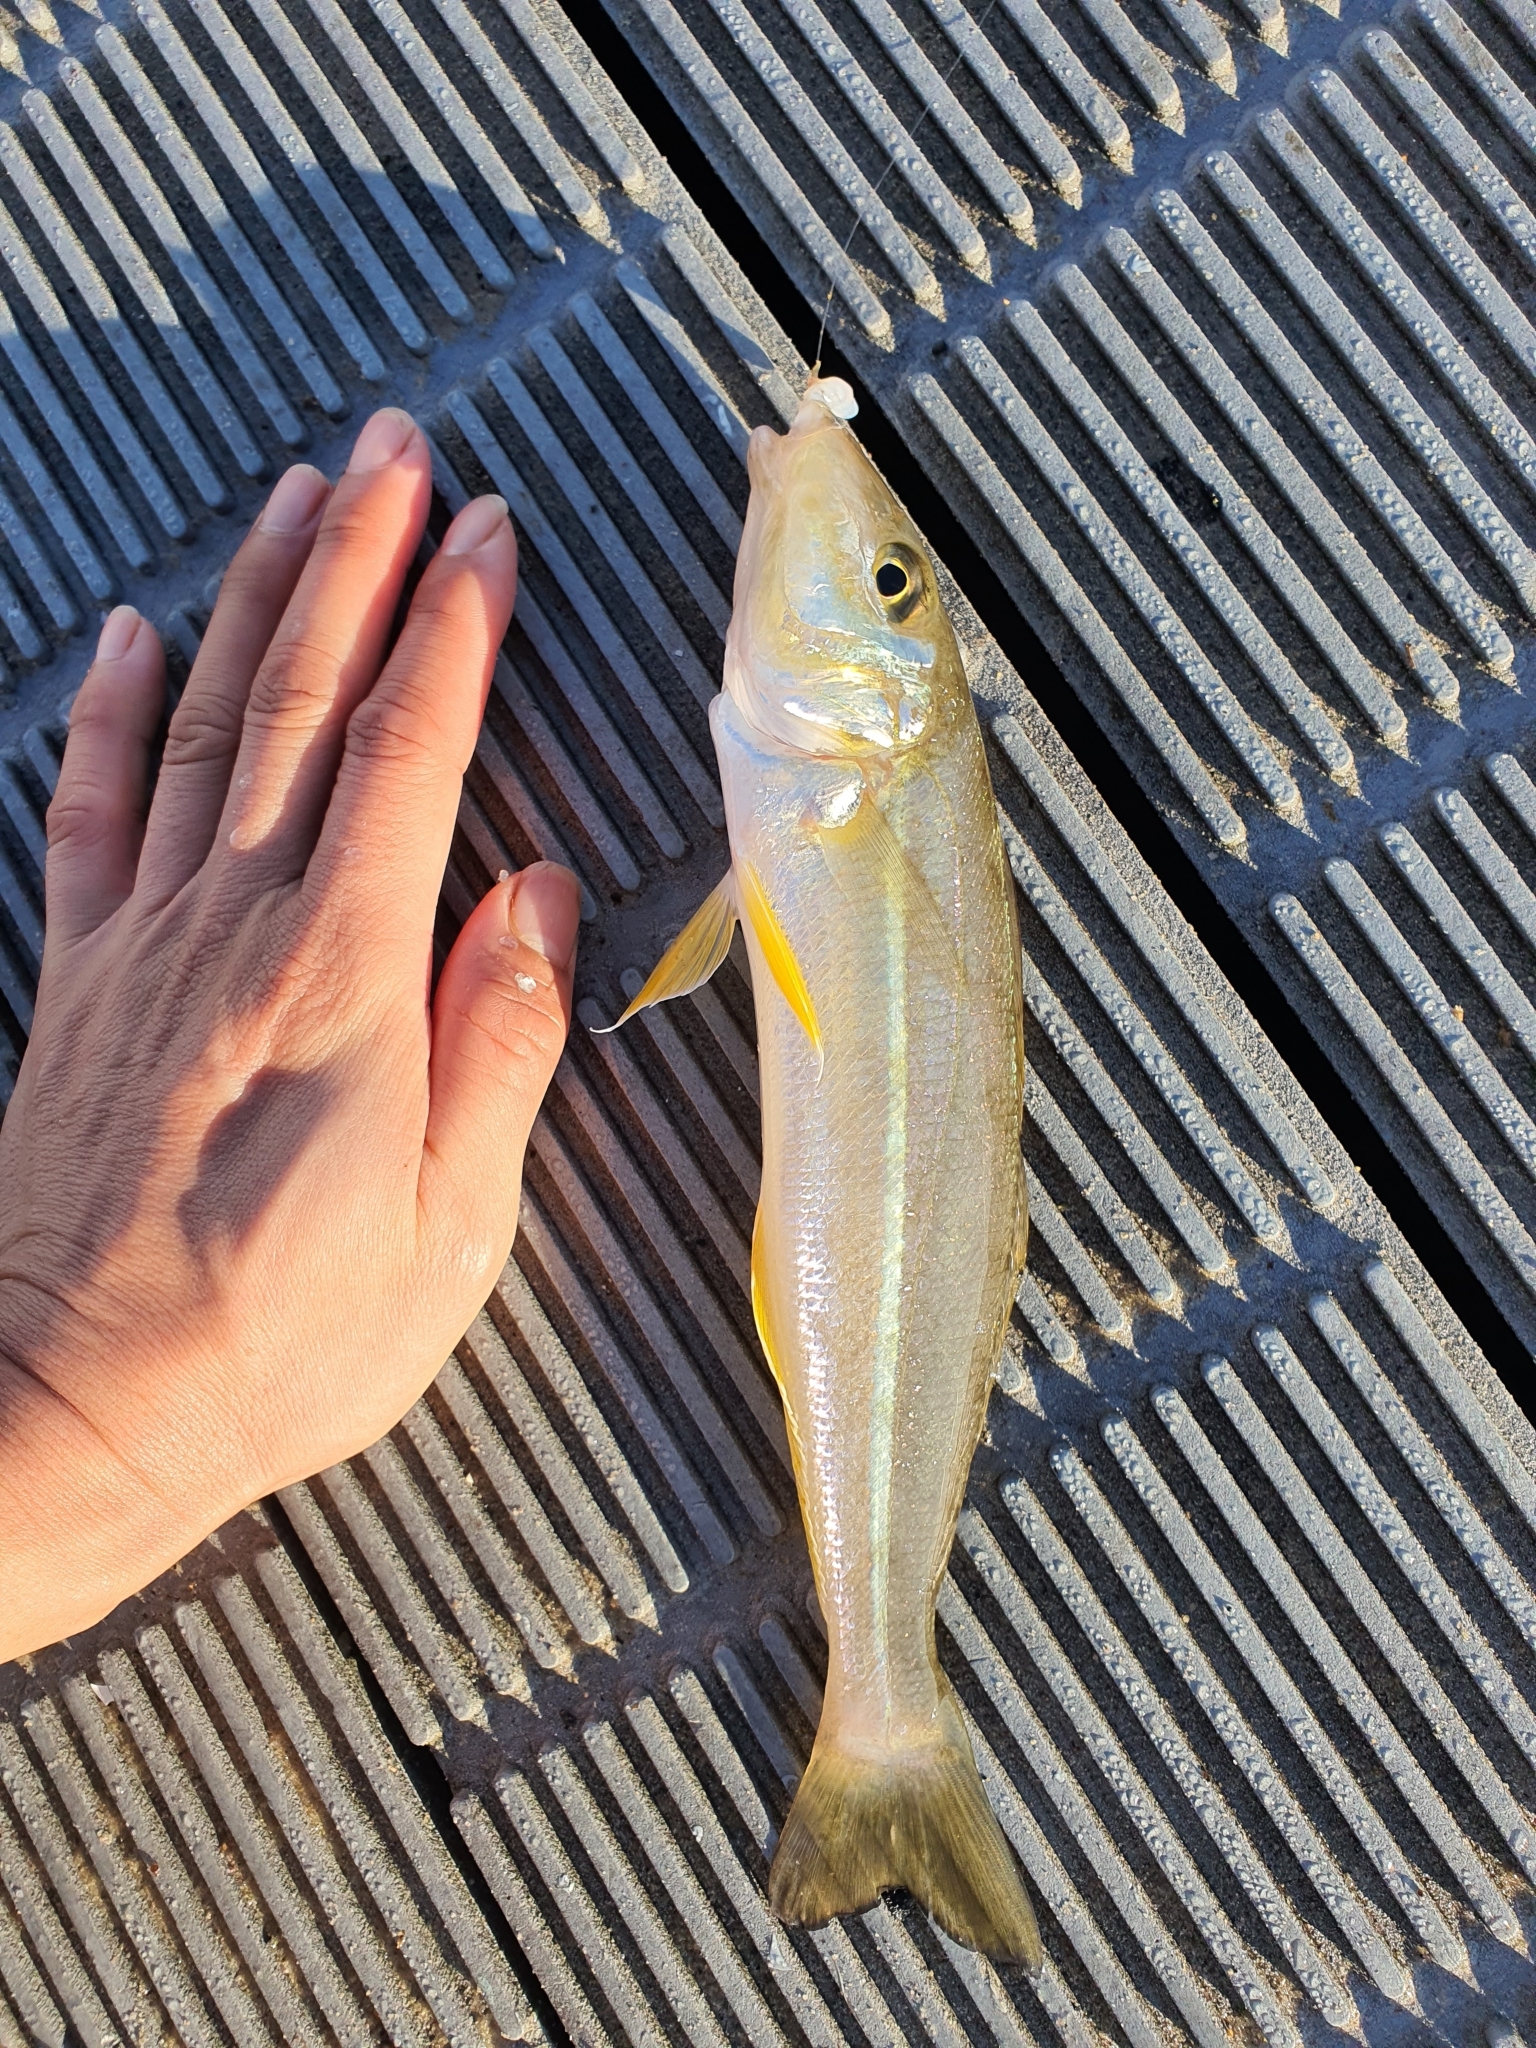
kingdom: Animalia
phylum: Chordata
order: Perciformes
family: Sillaginidae
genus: Sillago
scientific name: Sillago ciliata
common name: Sand sillago
